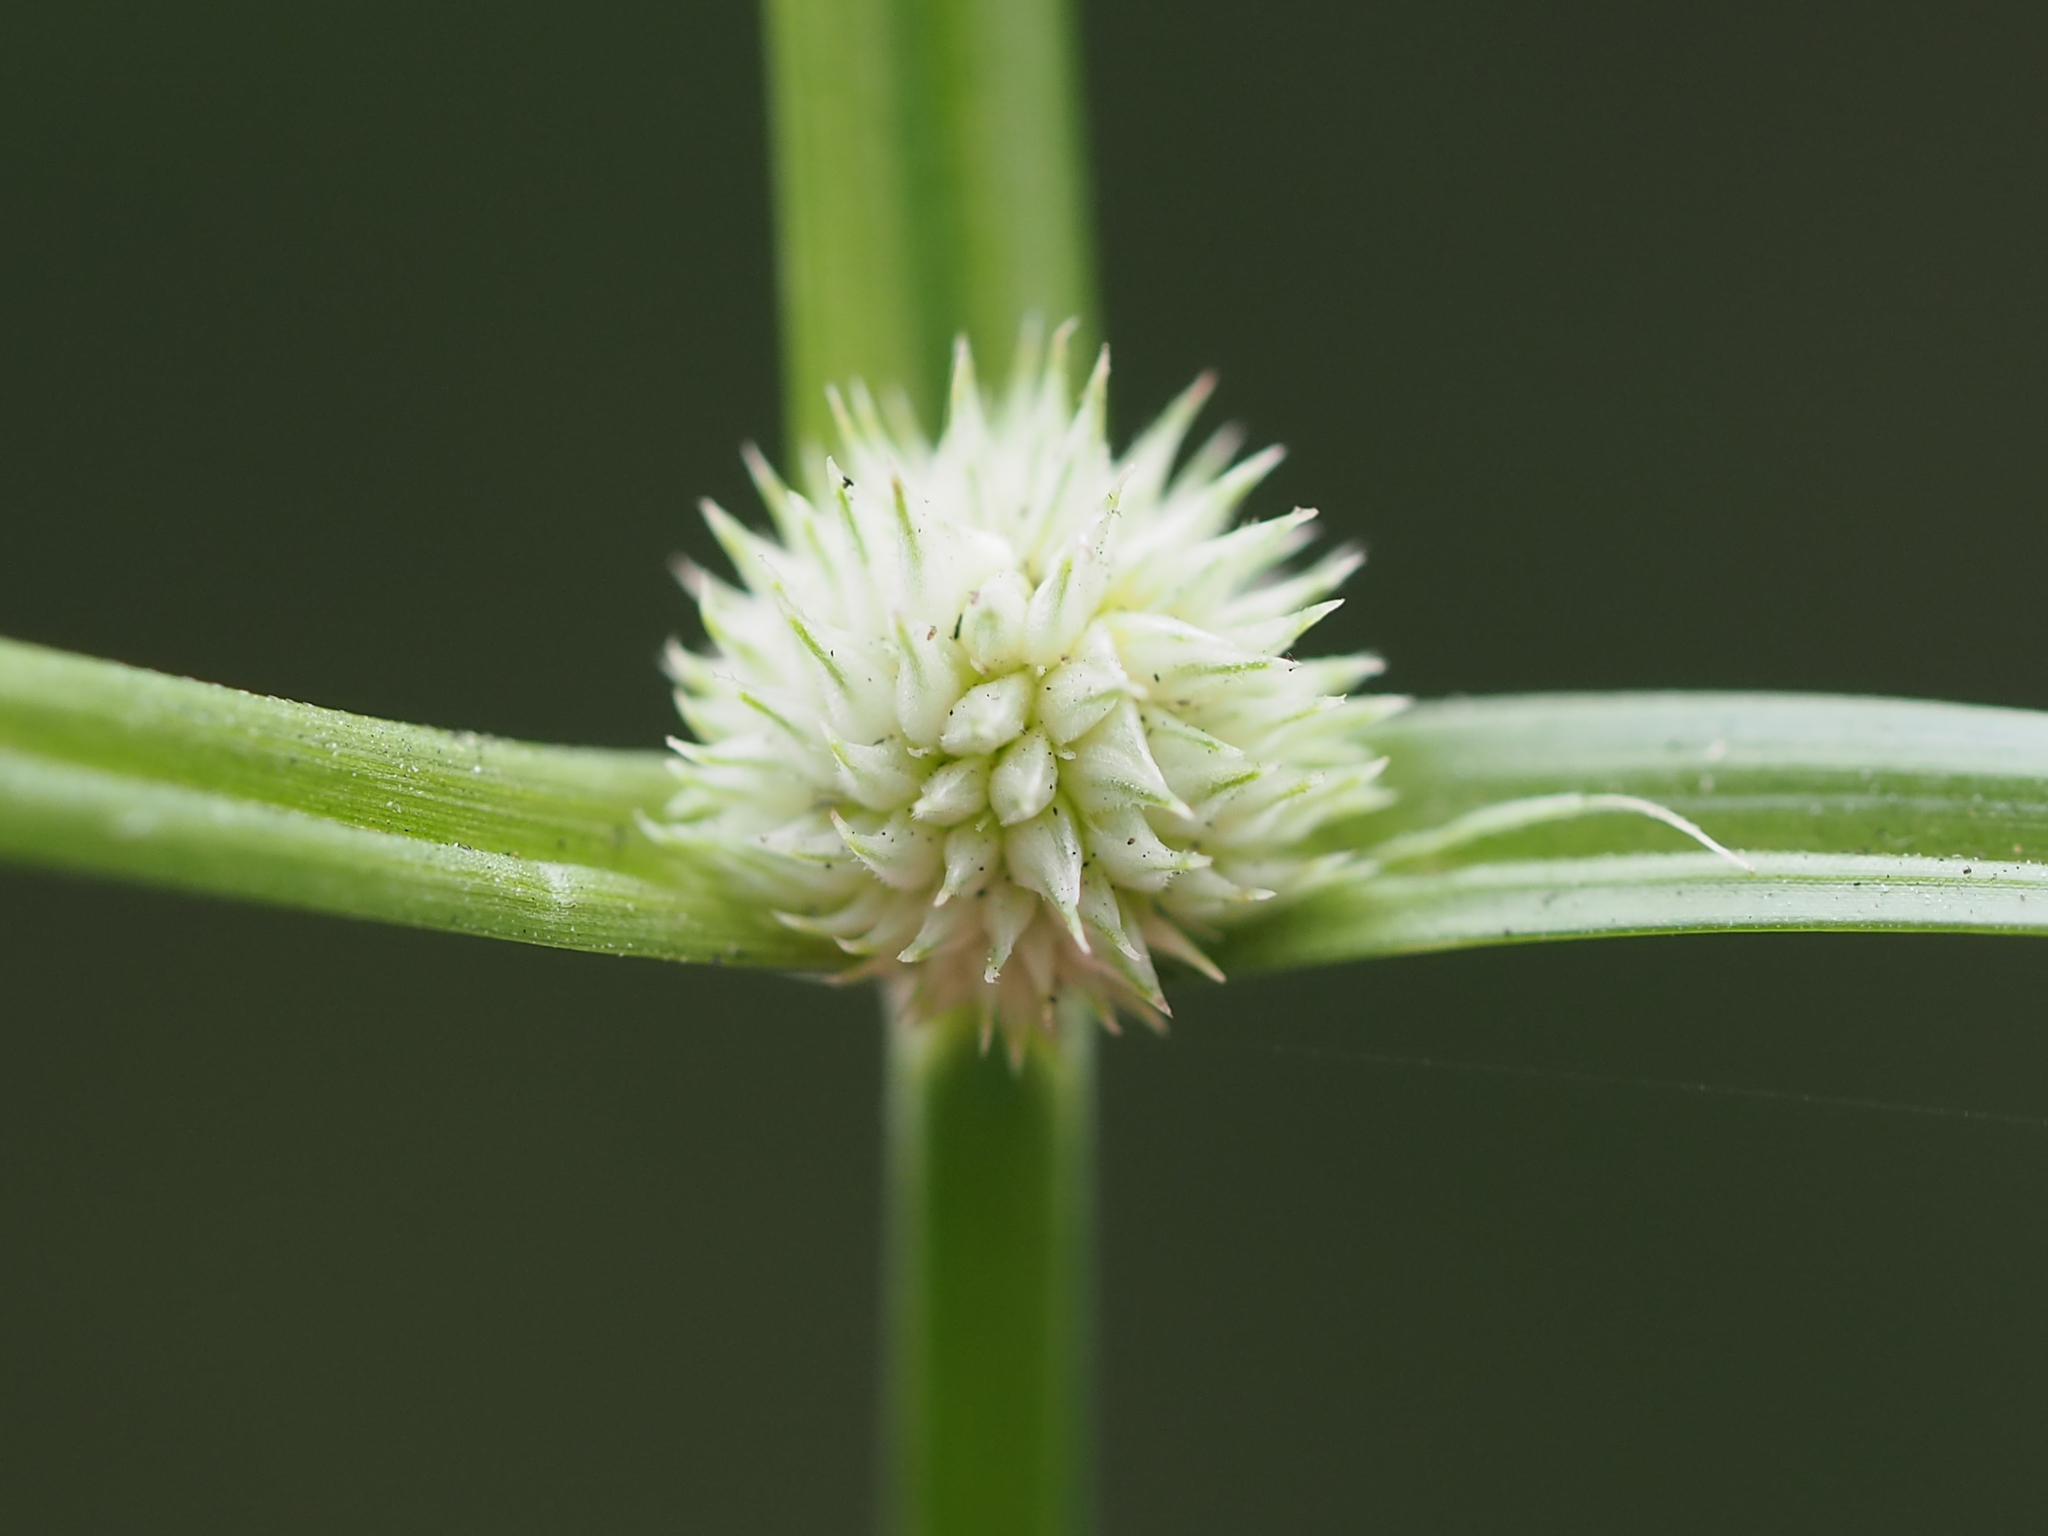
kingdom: Plantae
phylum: Tracheophyta
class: Liliopsida
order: Poales
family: Cyperaceae
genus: Cyperus
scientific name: Cyperus mindorensis
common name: Flatsedge
